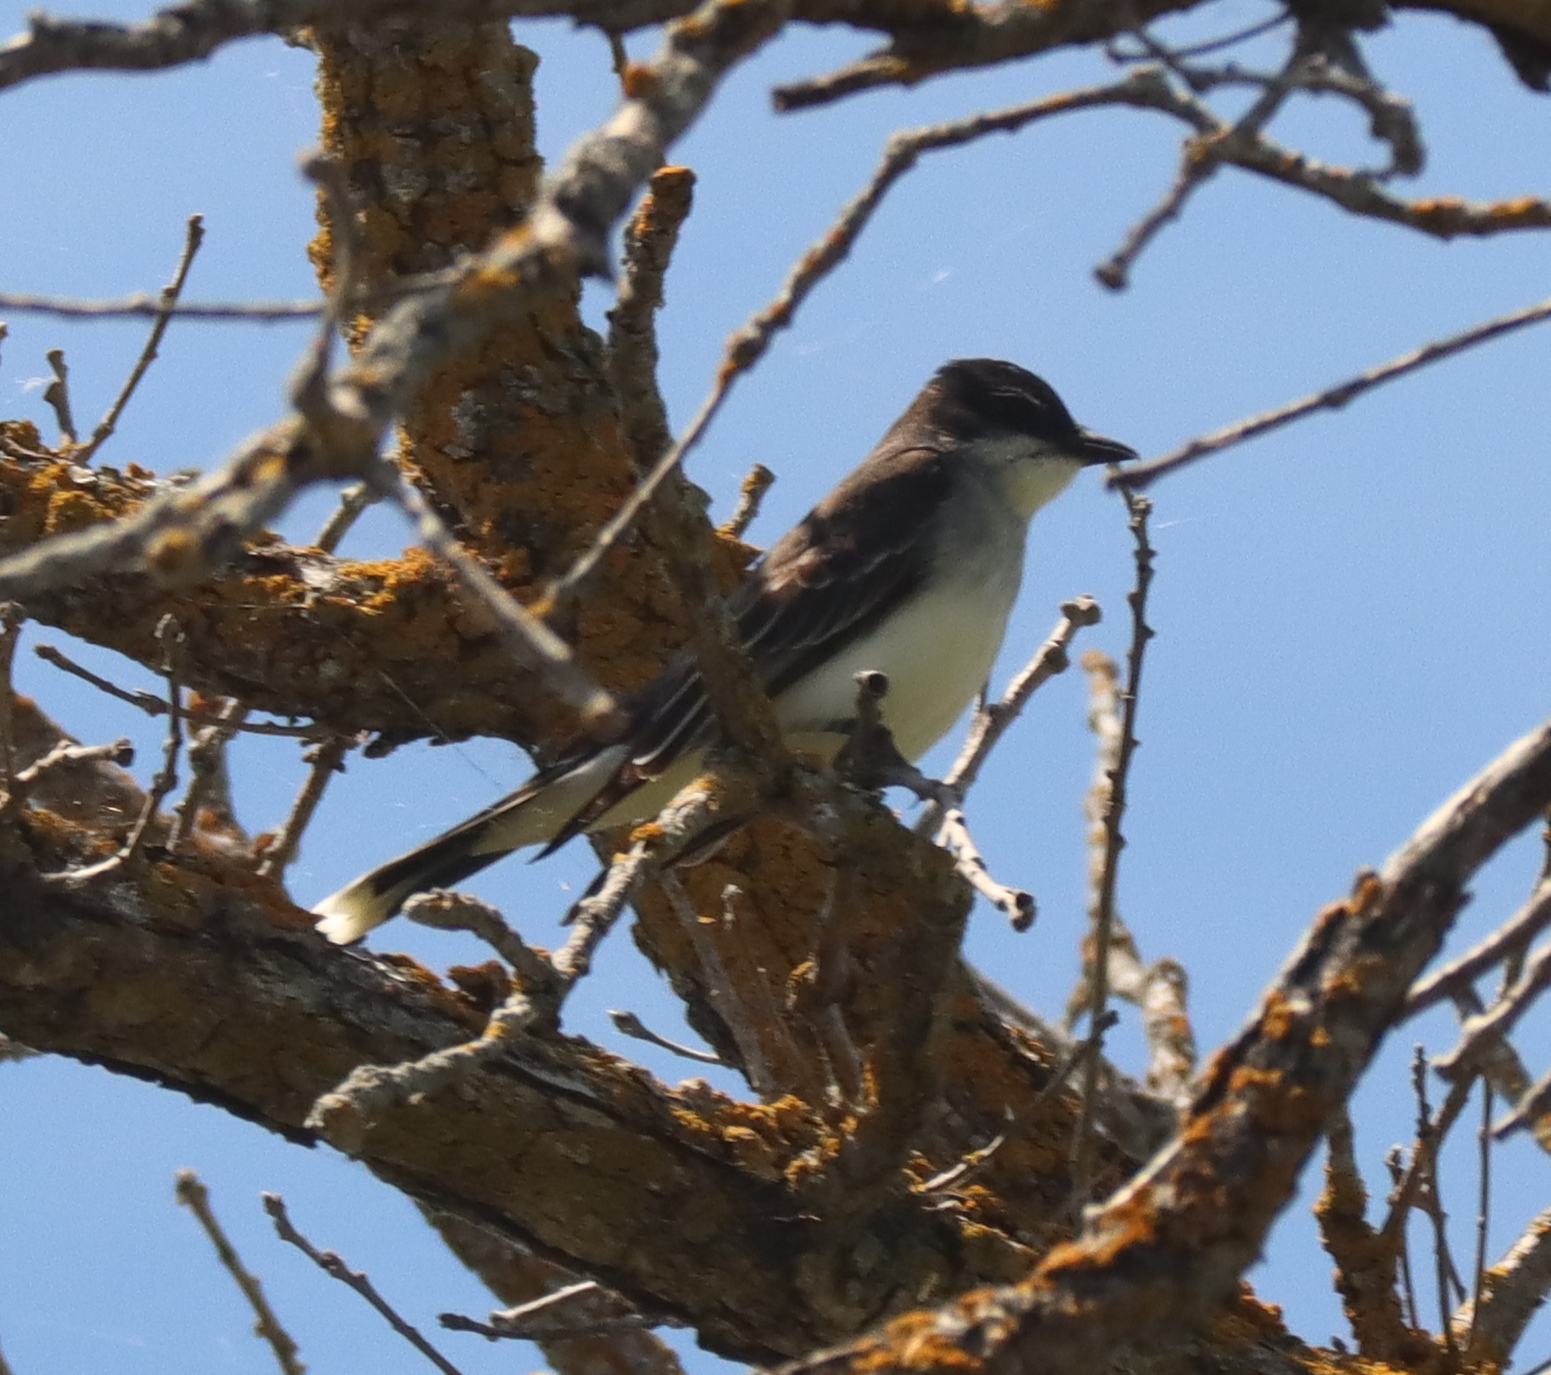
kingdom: Animalia
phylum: Chordata
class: Aves
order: Passeriformes
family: Tyrannidae
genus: Tyrannus
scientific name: Tyrannus tyrannus
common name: Eastern kingbird
